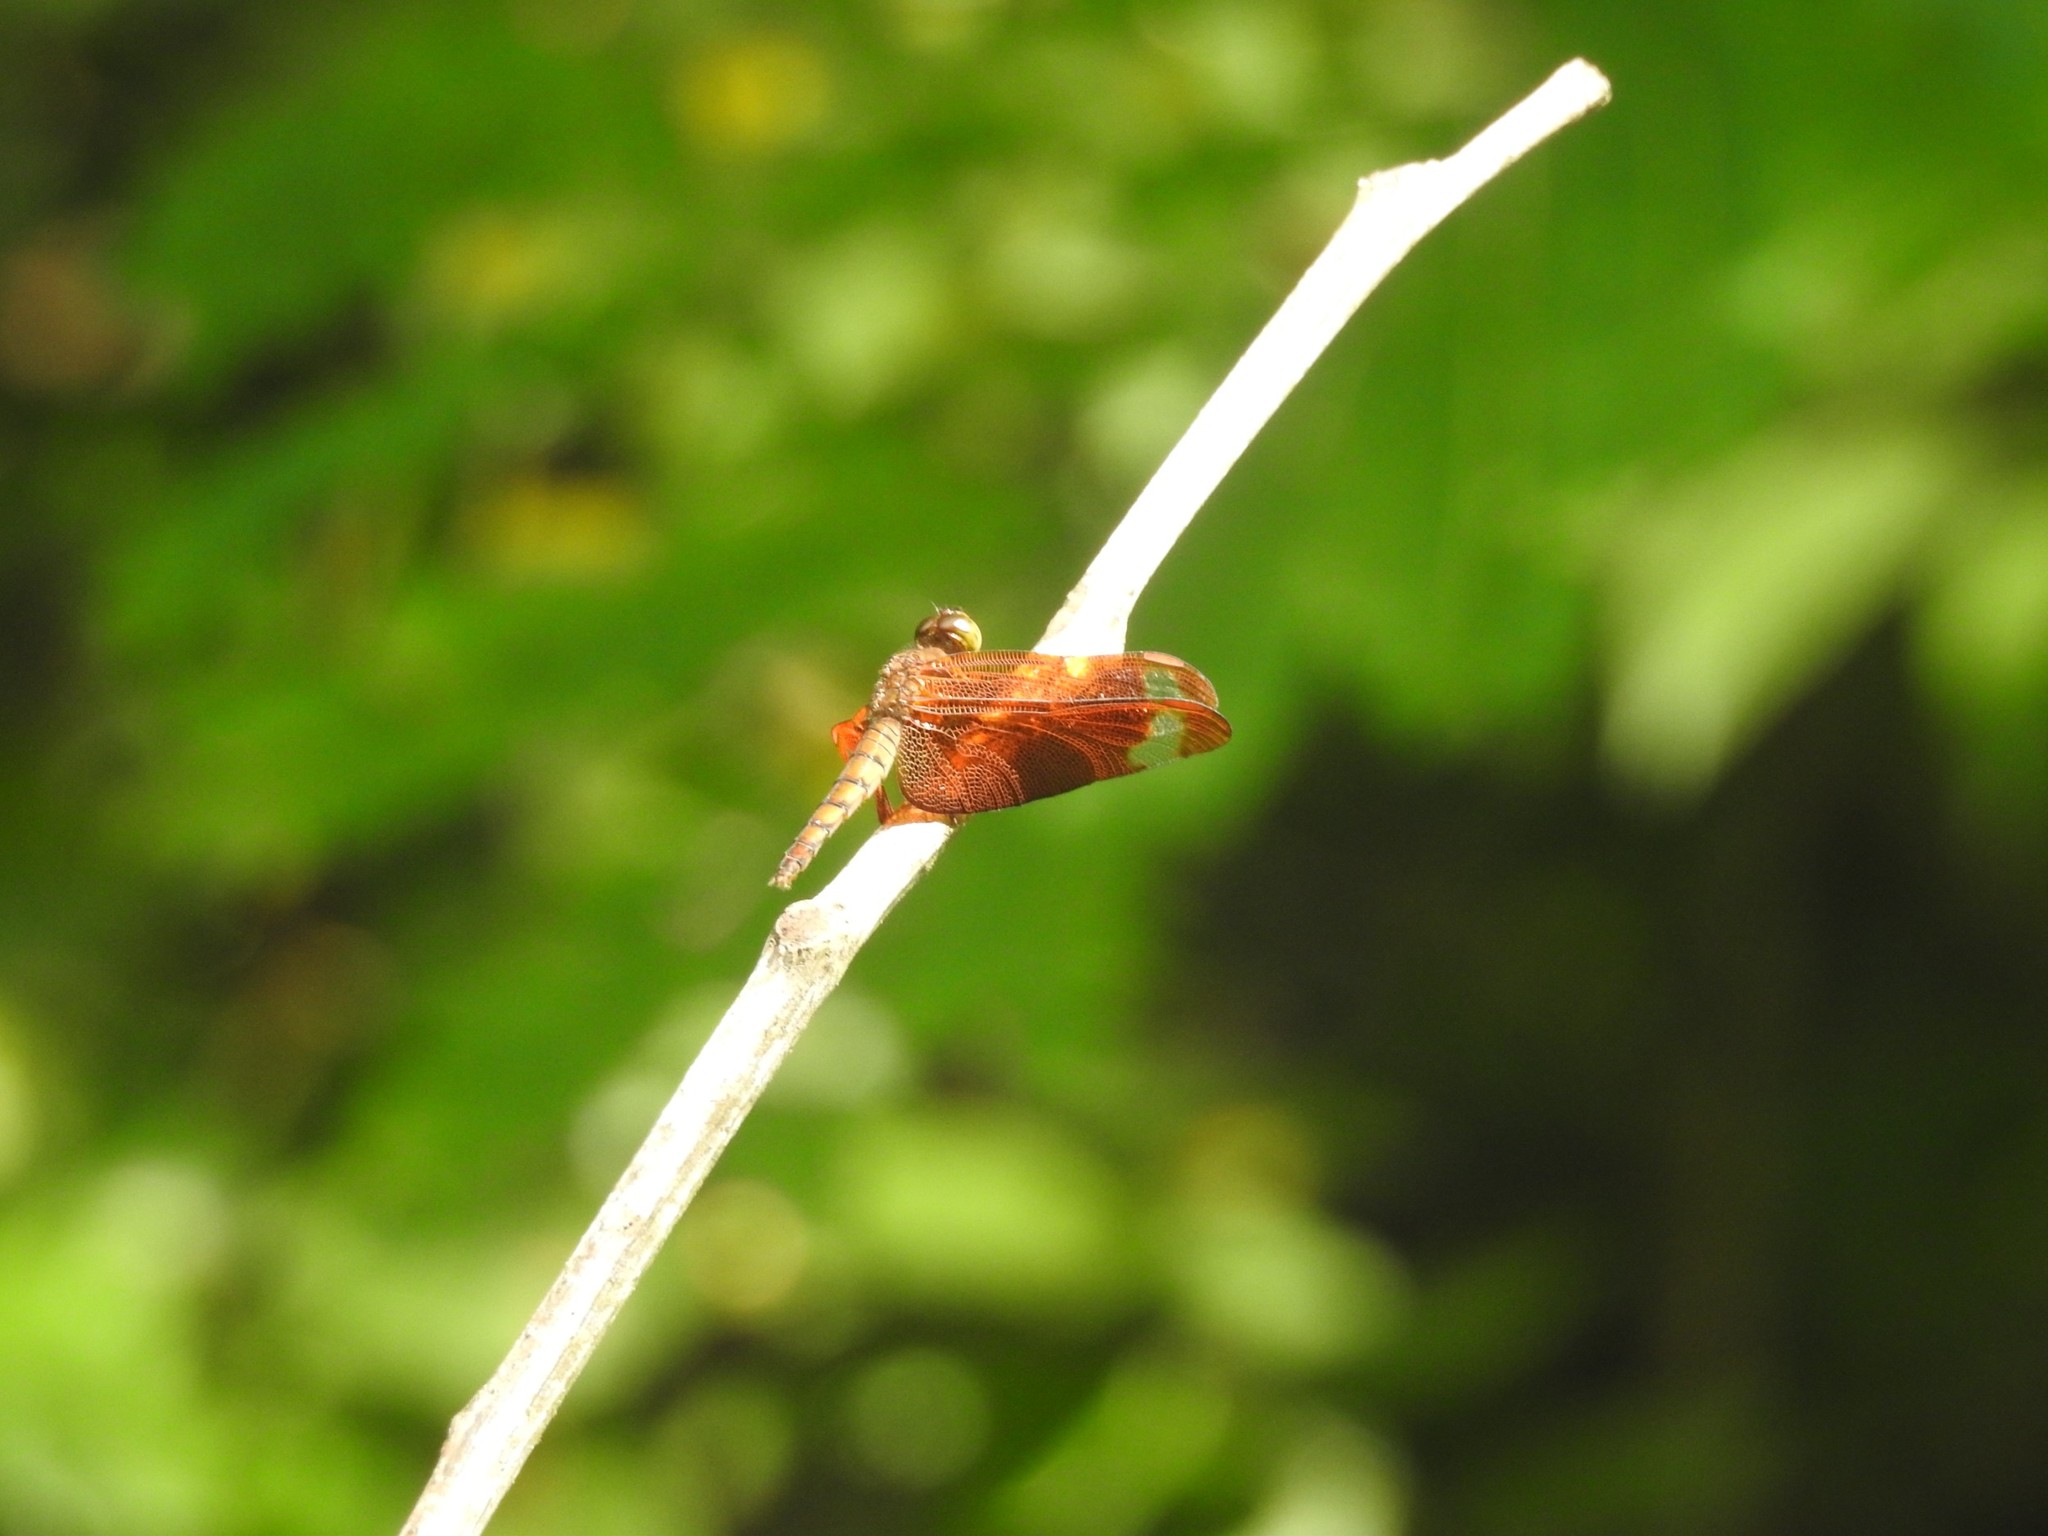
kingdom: Animalia
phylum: Arthropoda
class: Insecta
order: Odonata
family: Libellulidae
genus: Neurothemis
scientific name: Neurothemis fulvia
